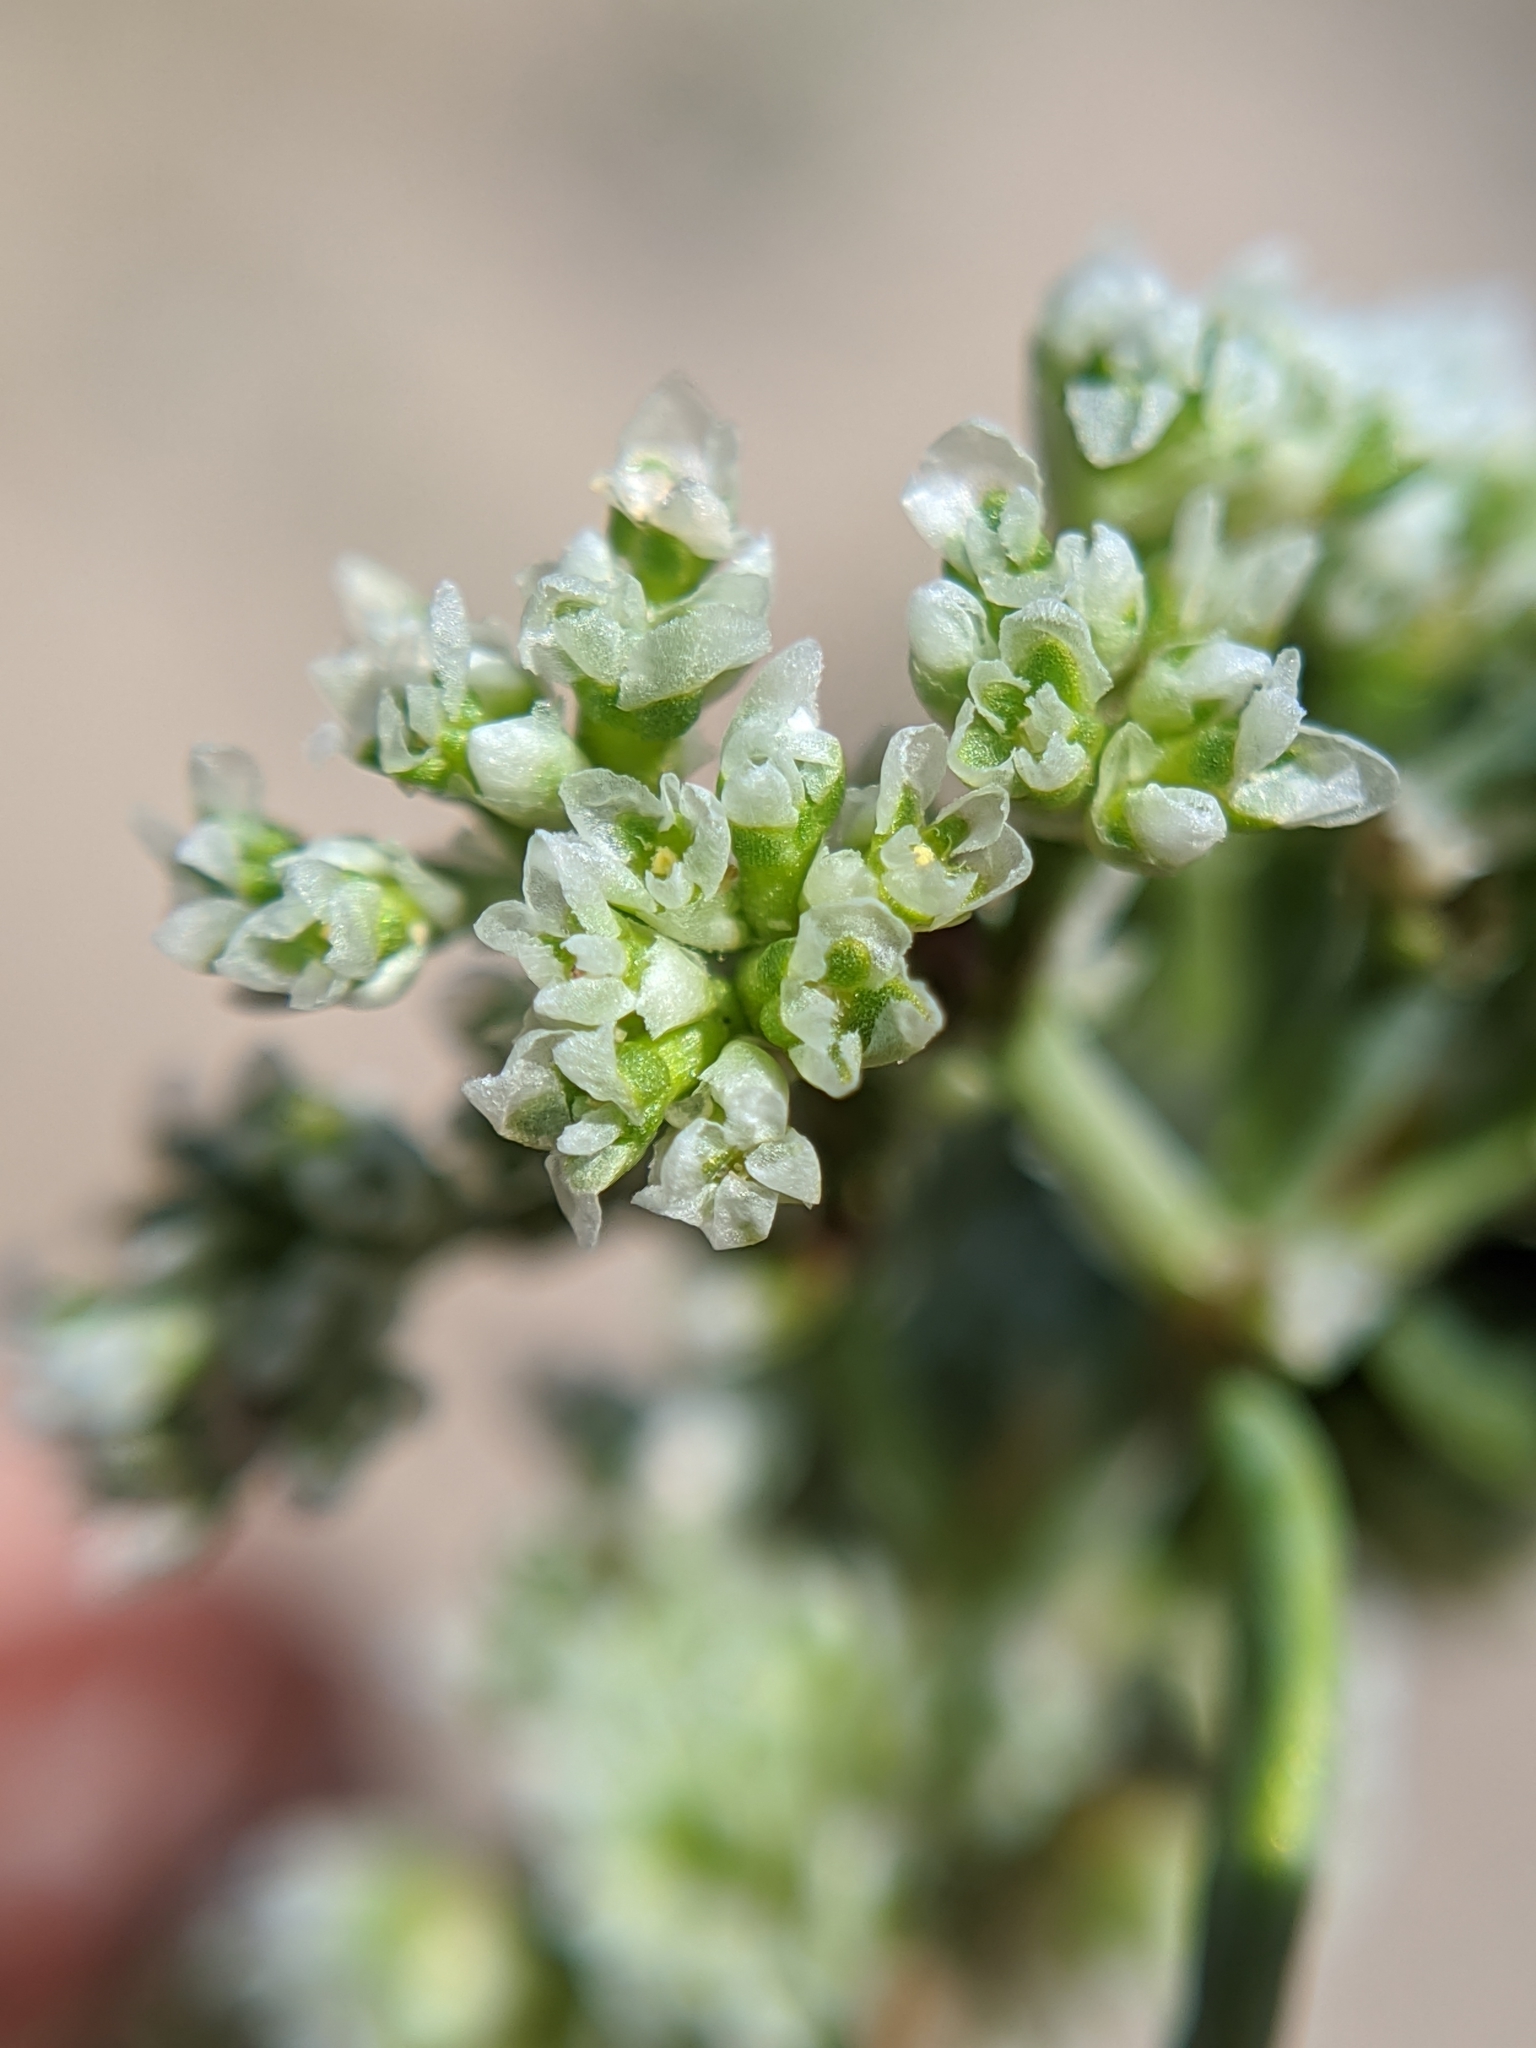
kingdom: Plantae
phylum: Tracheophyta
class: Magnoliopsida
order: Caryophyllales
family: Caryophyllaceae
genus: Achyronychia
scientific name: Achyronychia cooperi
